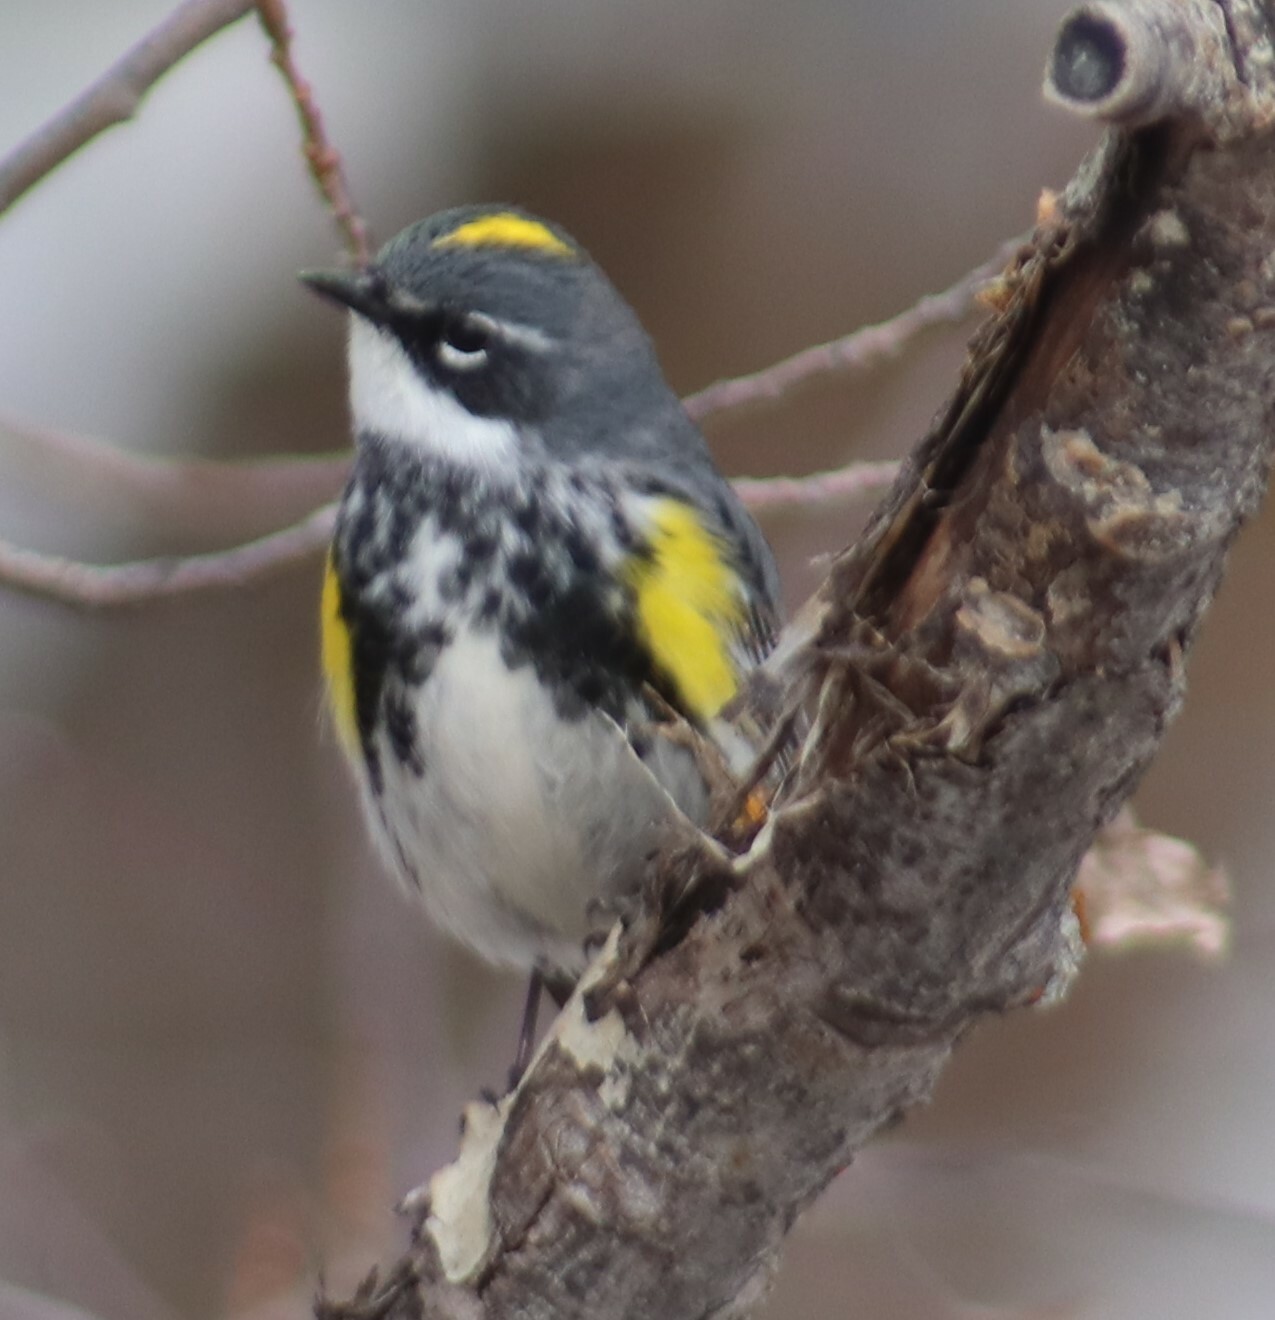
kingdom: Animalia
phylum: Chordata
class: Aves
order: Passeriformes
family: Parulidae
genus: Setophaga
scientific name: Setophaga coronata
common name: Myrtle warbler
